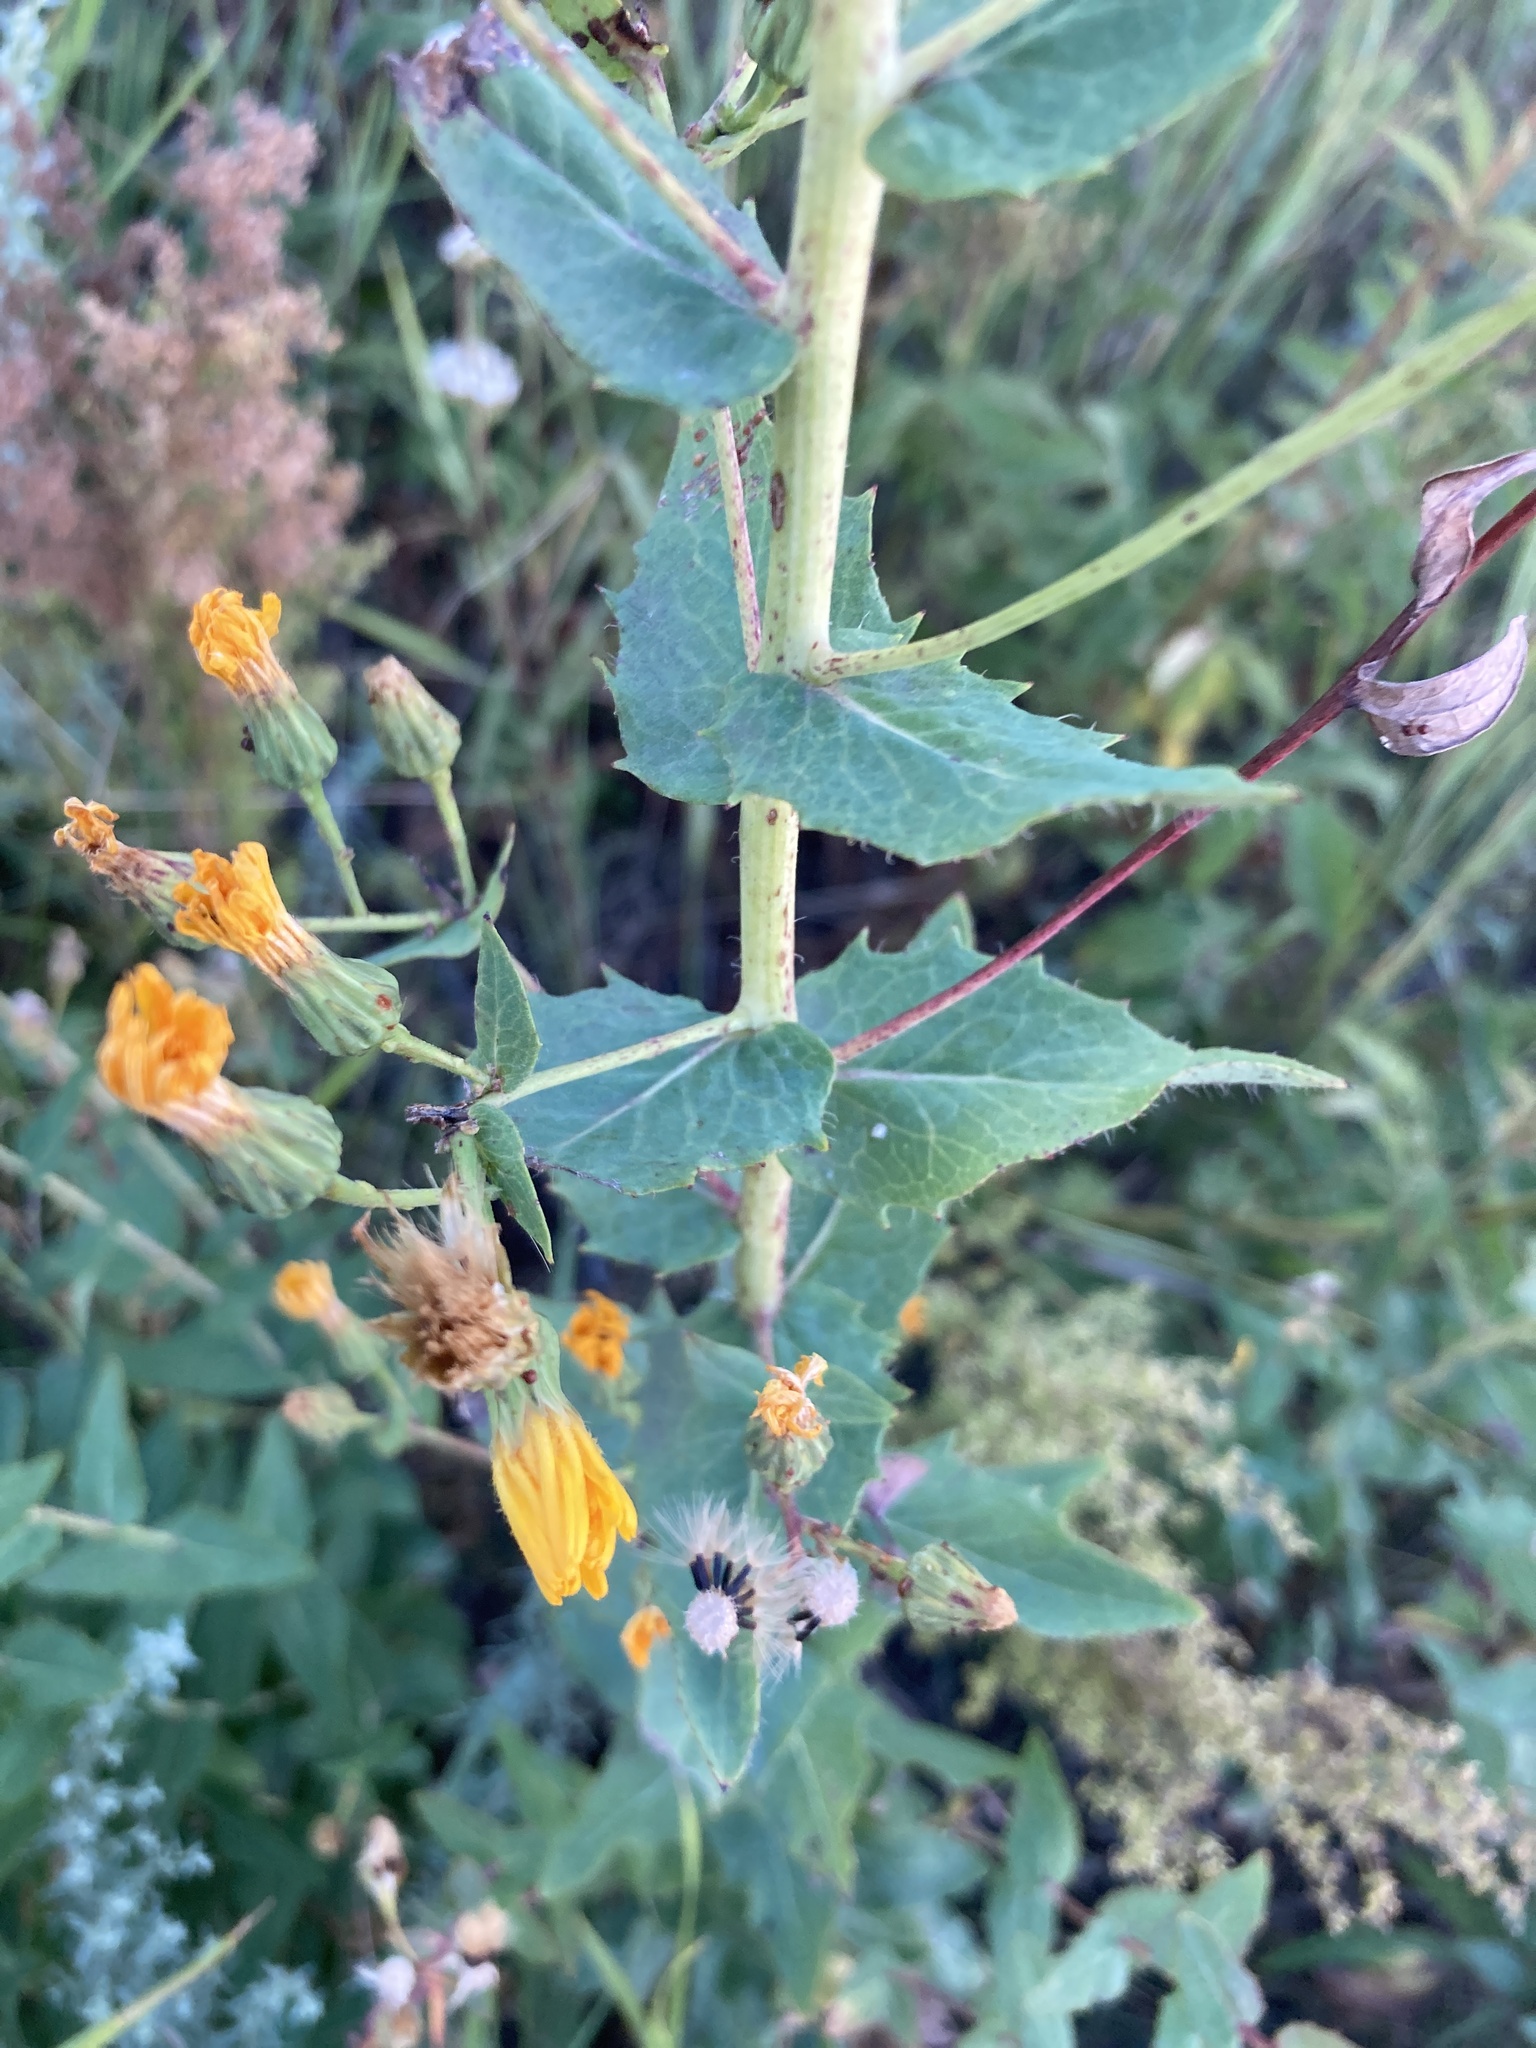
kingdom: Plantae
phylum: Tracheophyta
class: Magnoliopsida
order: Asterales
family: Asteraceae
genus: Hieracium
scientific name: Hieracium virosum
